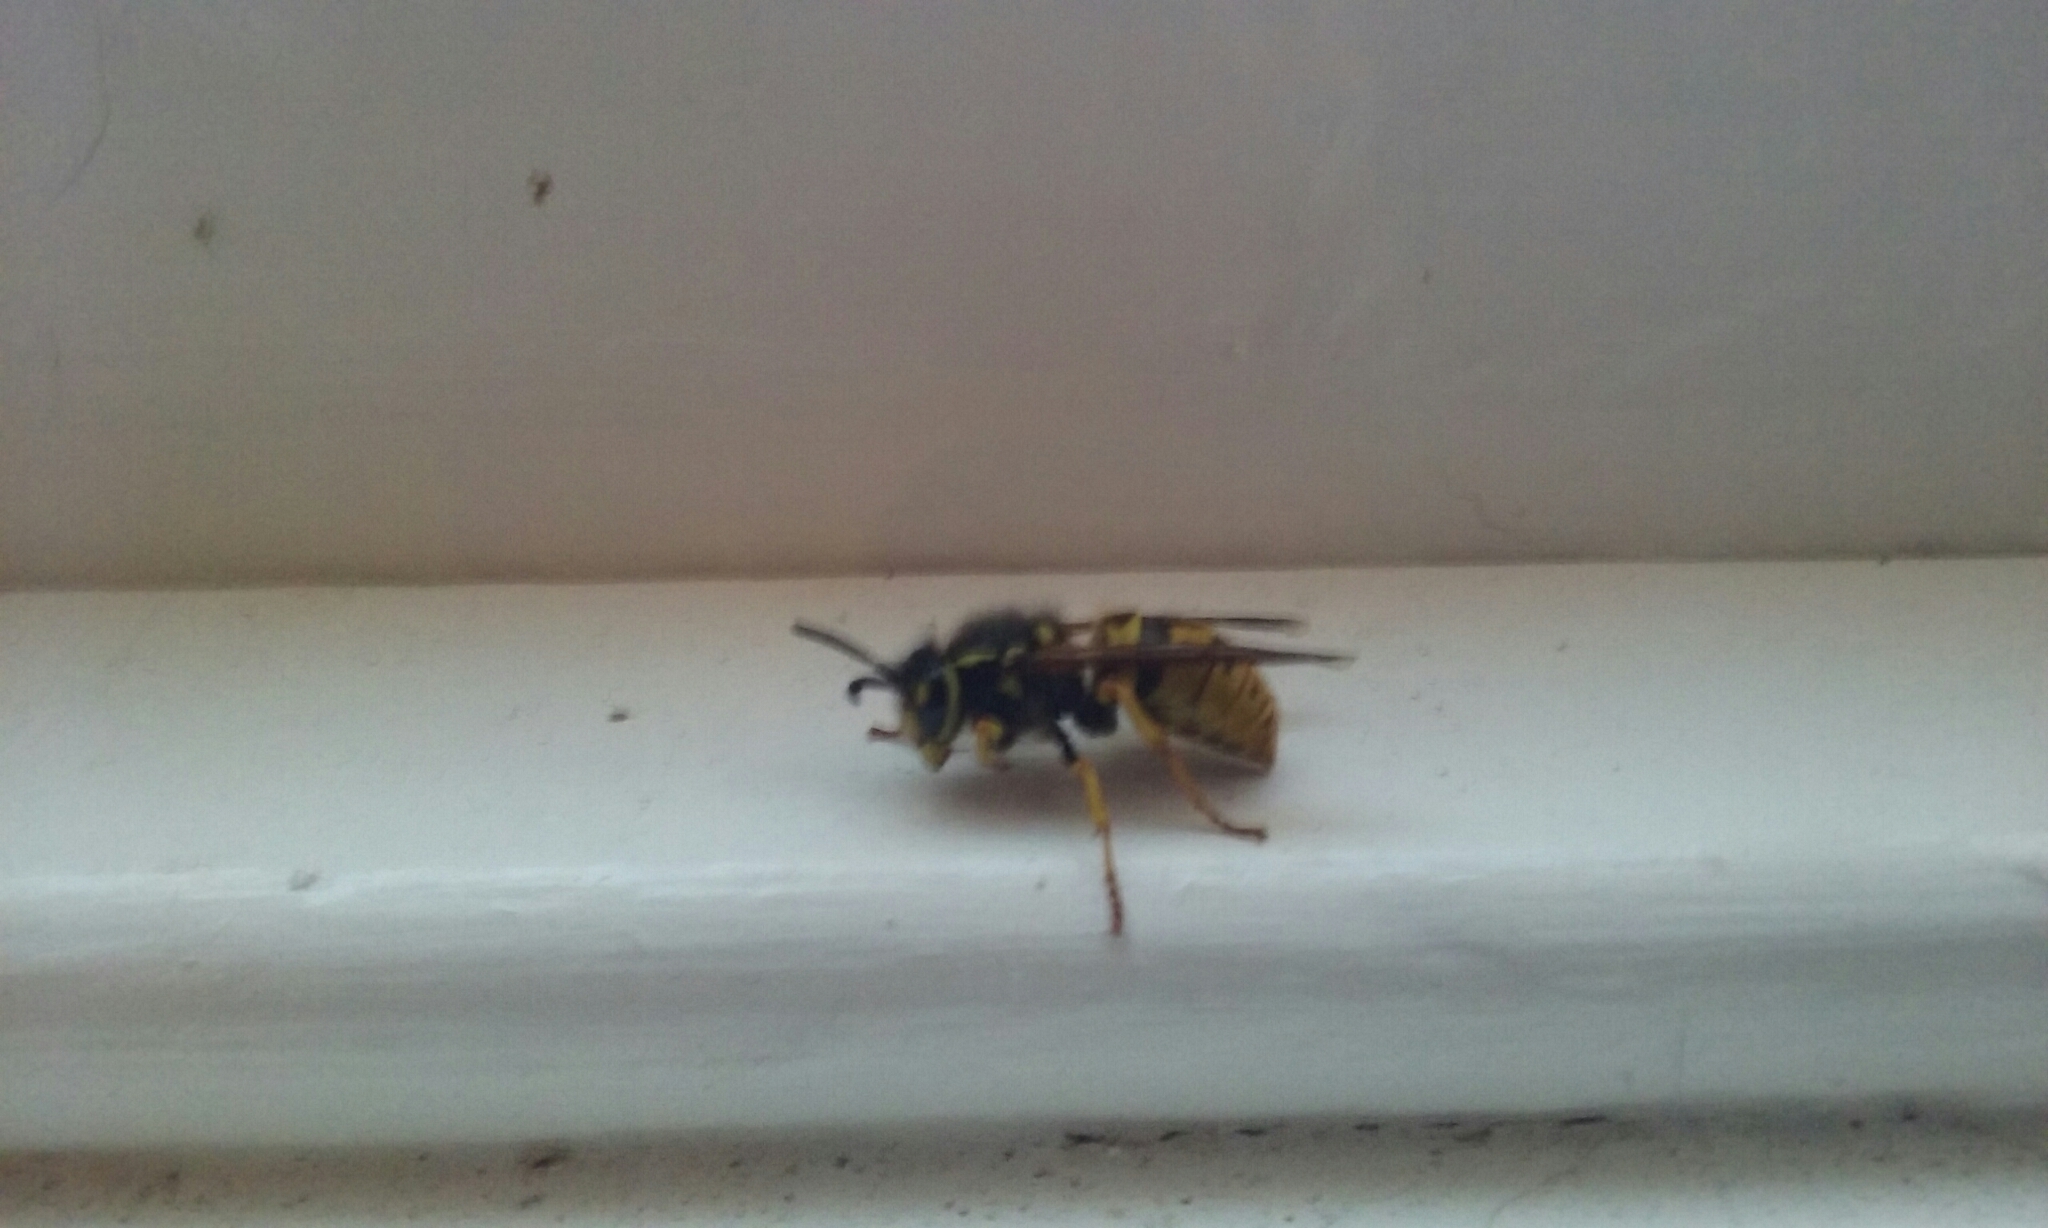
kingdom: Animalia
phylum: Arthropoda
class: Insecta
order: Hymenoptera
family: Vespidae
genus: Vespula
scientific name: Vespula germanica
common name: German wasp
